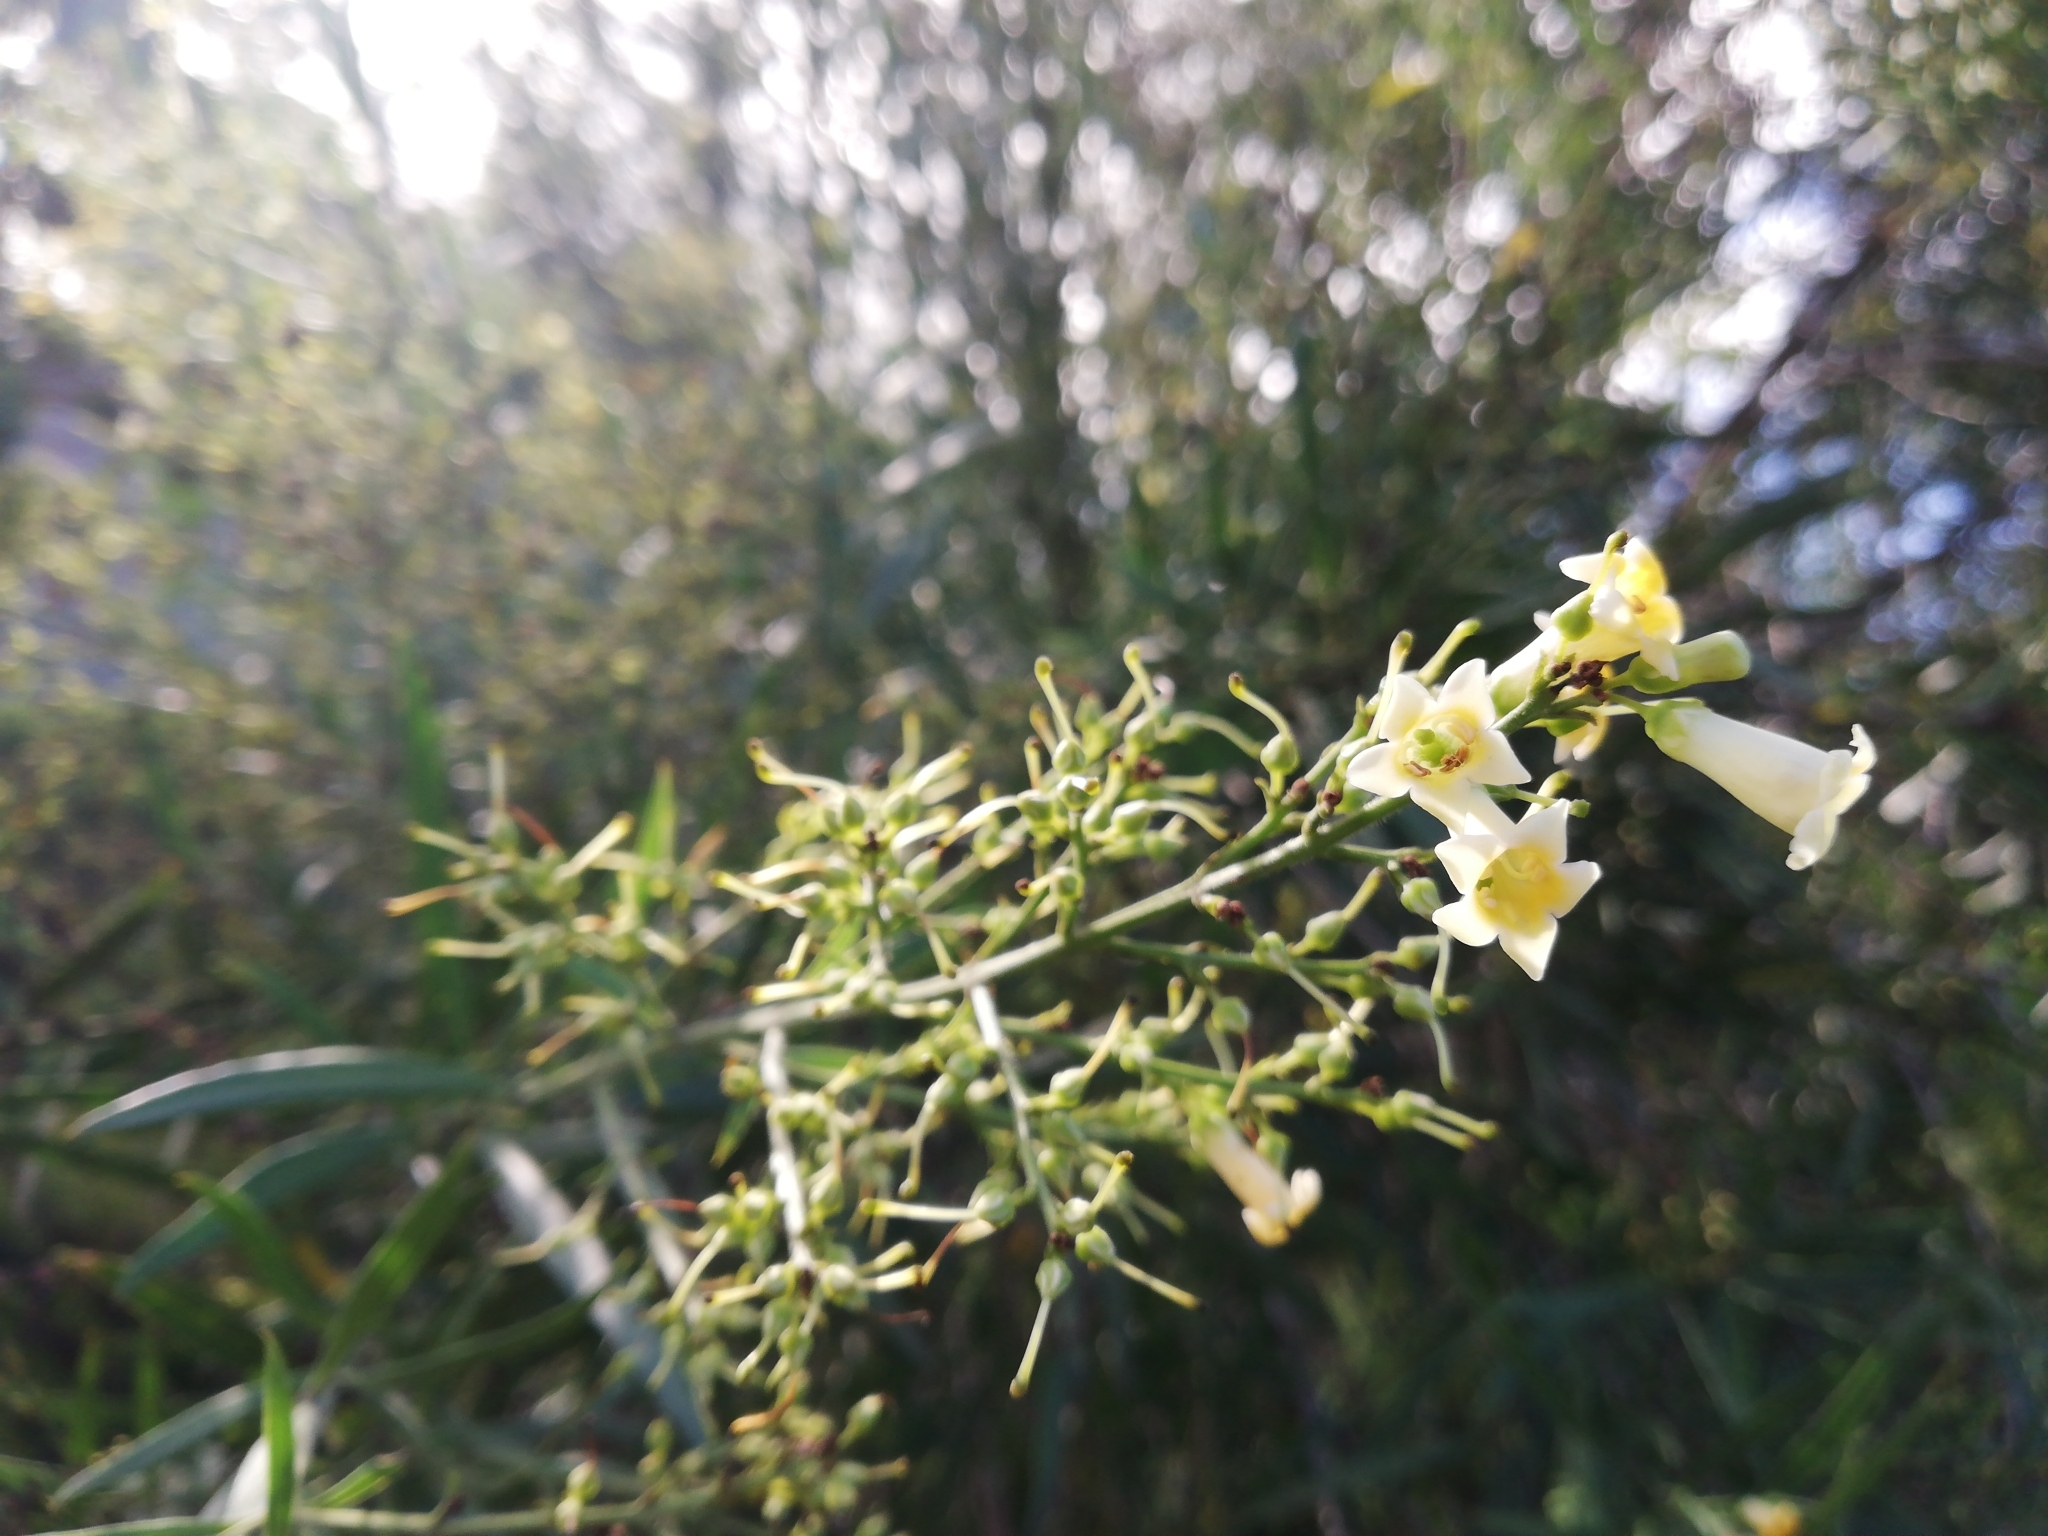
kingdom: Plantae
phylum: Tracheophyta
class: Magnoliopsida
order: Lamiales
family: Scrophulariaceae
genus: Freylinia
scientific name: Freylinia lanceolata
